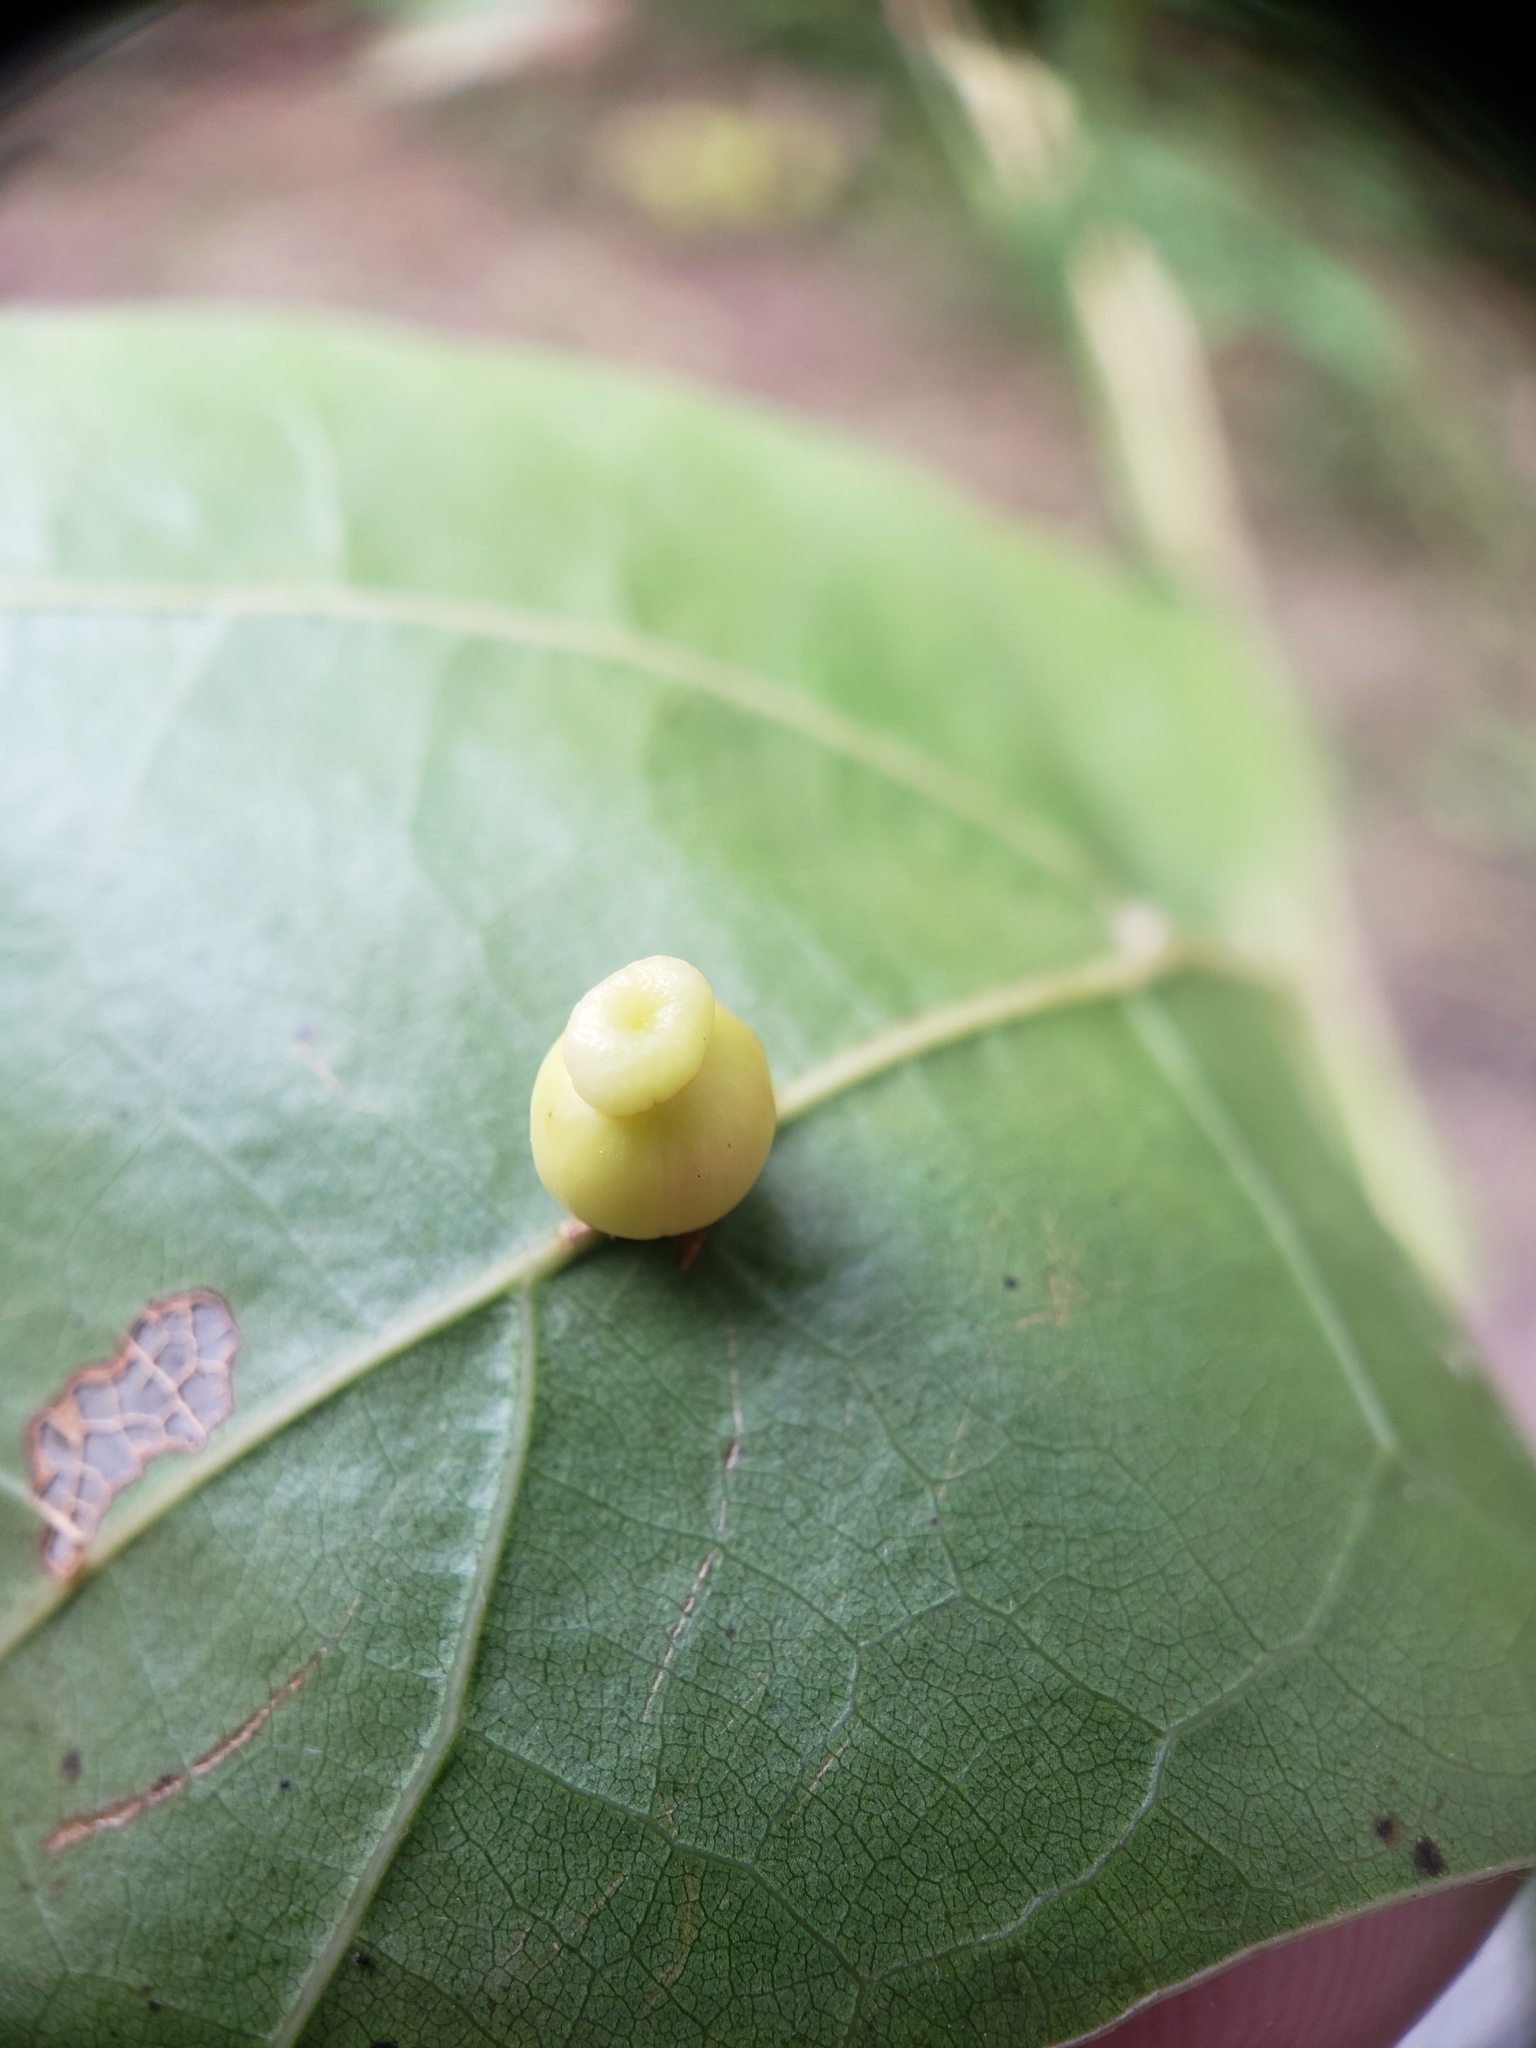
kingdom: Animalia
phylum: Arthropoda
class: Insecta
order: Hymenoptera
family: Cynipidae
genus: Kokkocynips
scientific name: Kokkocynips rileyi
